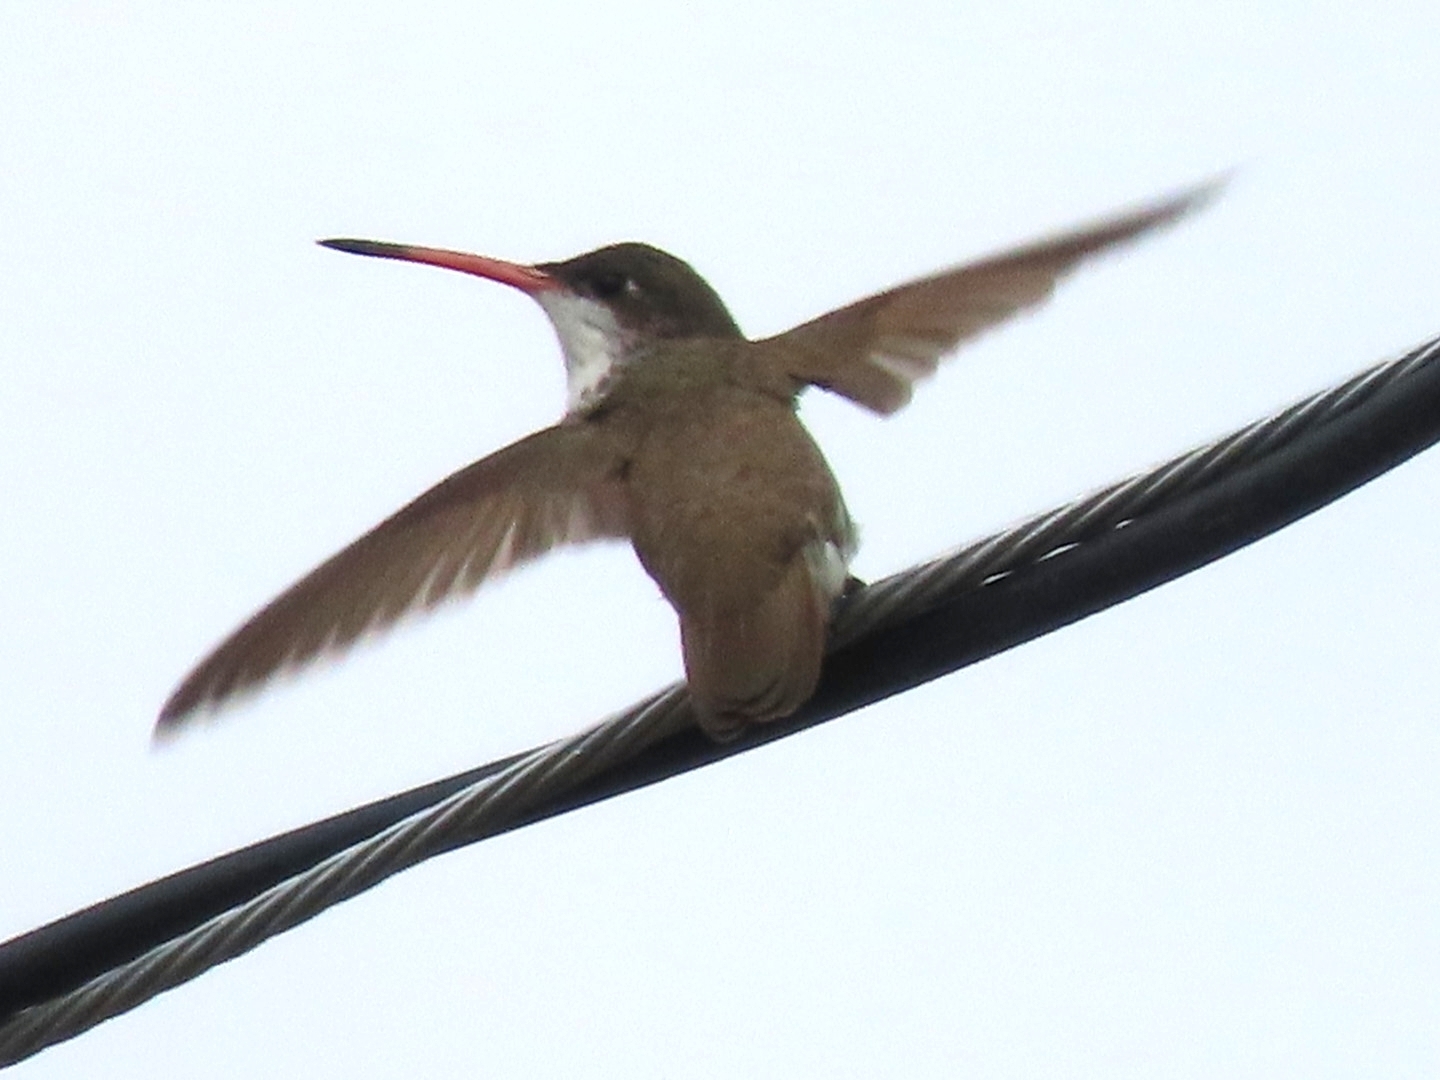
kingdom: Animalia
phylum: Chordata
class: Aves
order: Apodiformes
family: Trochilidae
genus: Leucolia
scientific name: Leucolia violiceps
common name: Violet-crowned hummingbird
